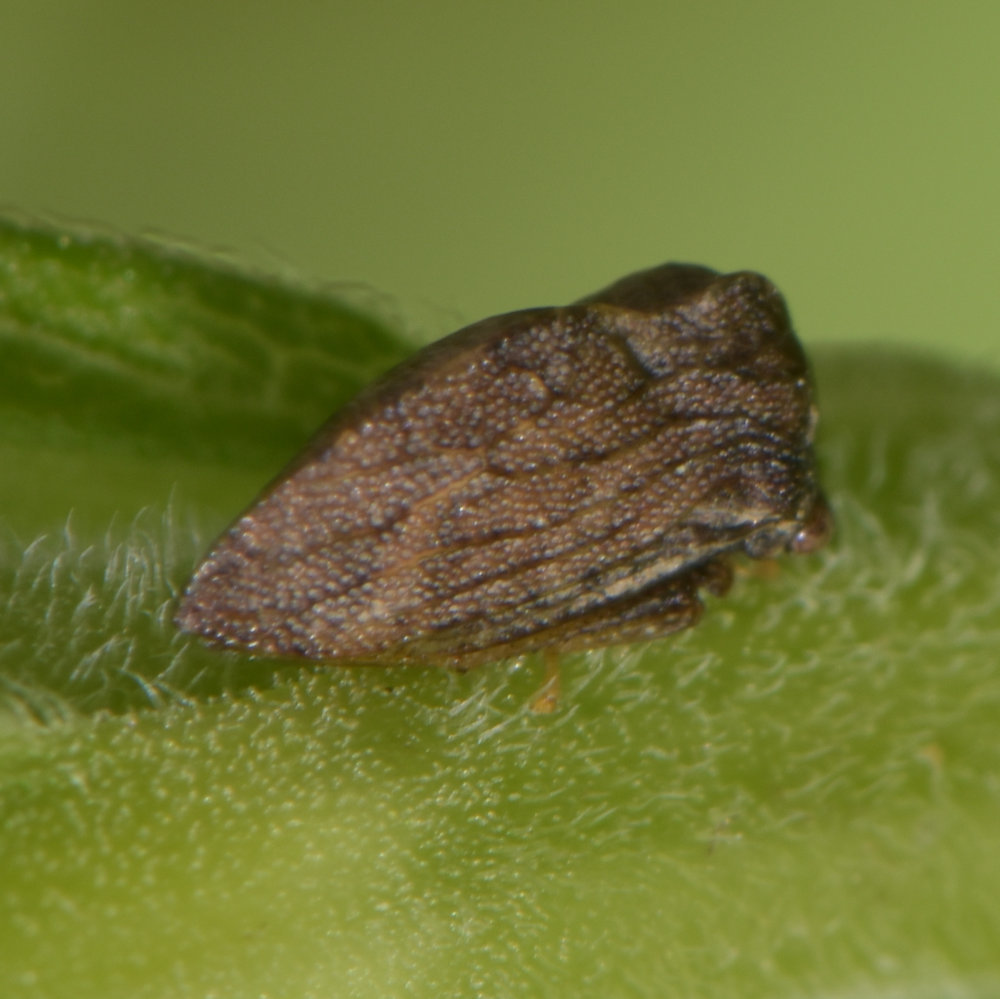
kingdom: Animalia
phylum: Arthropoda
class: Insecta
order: Hemiptera
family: Membracidae
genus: Publilia
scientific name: Publilia concava
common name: Aster treehopper
